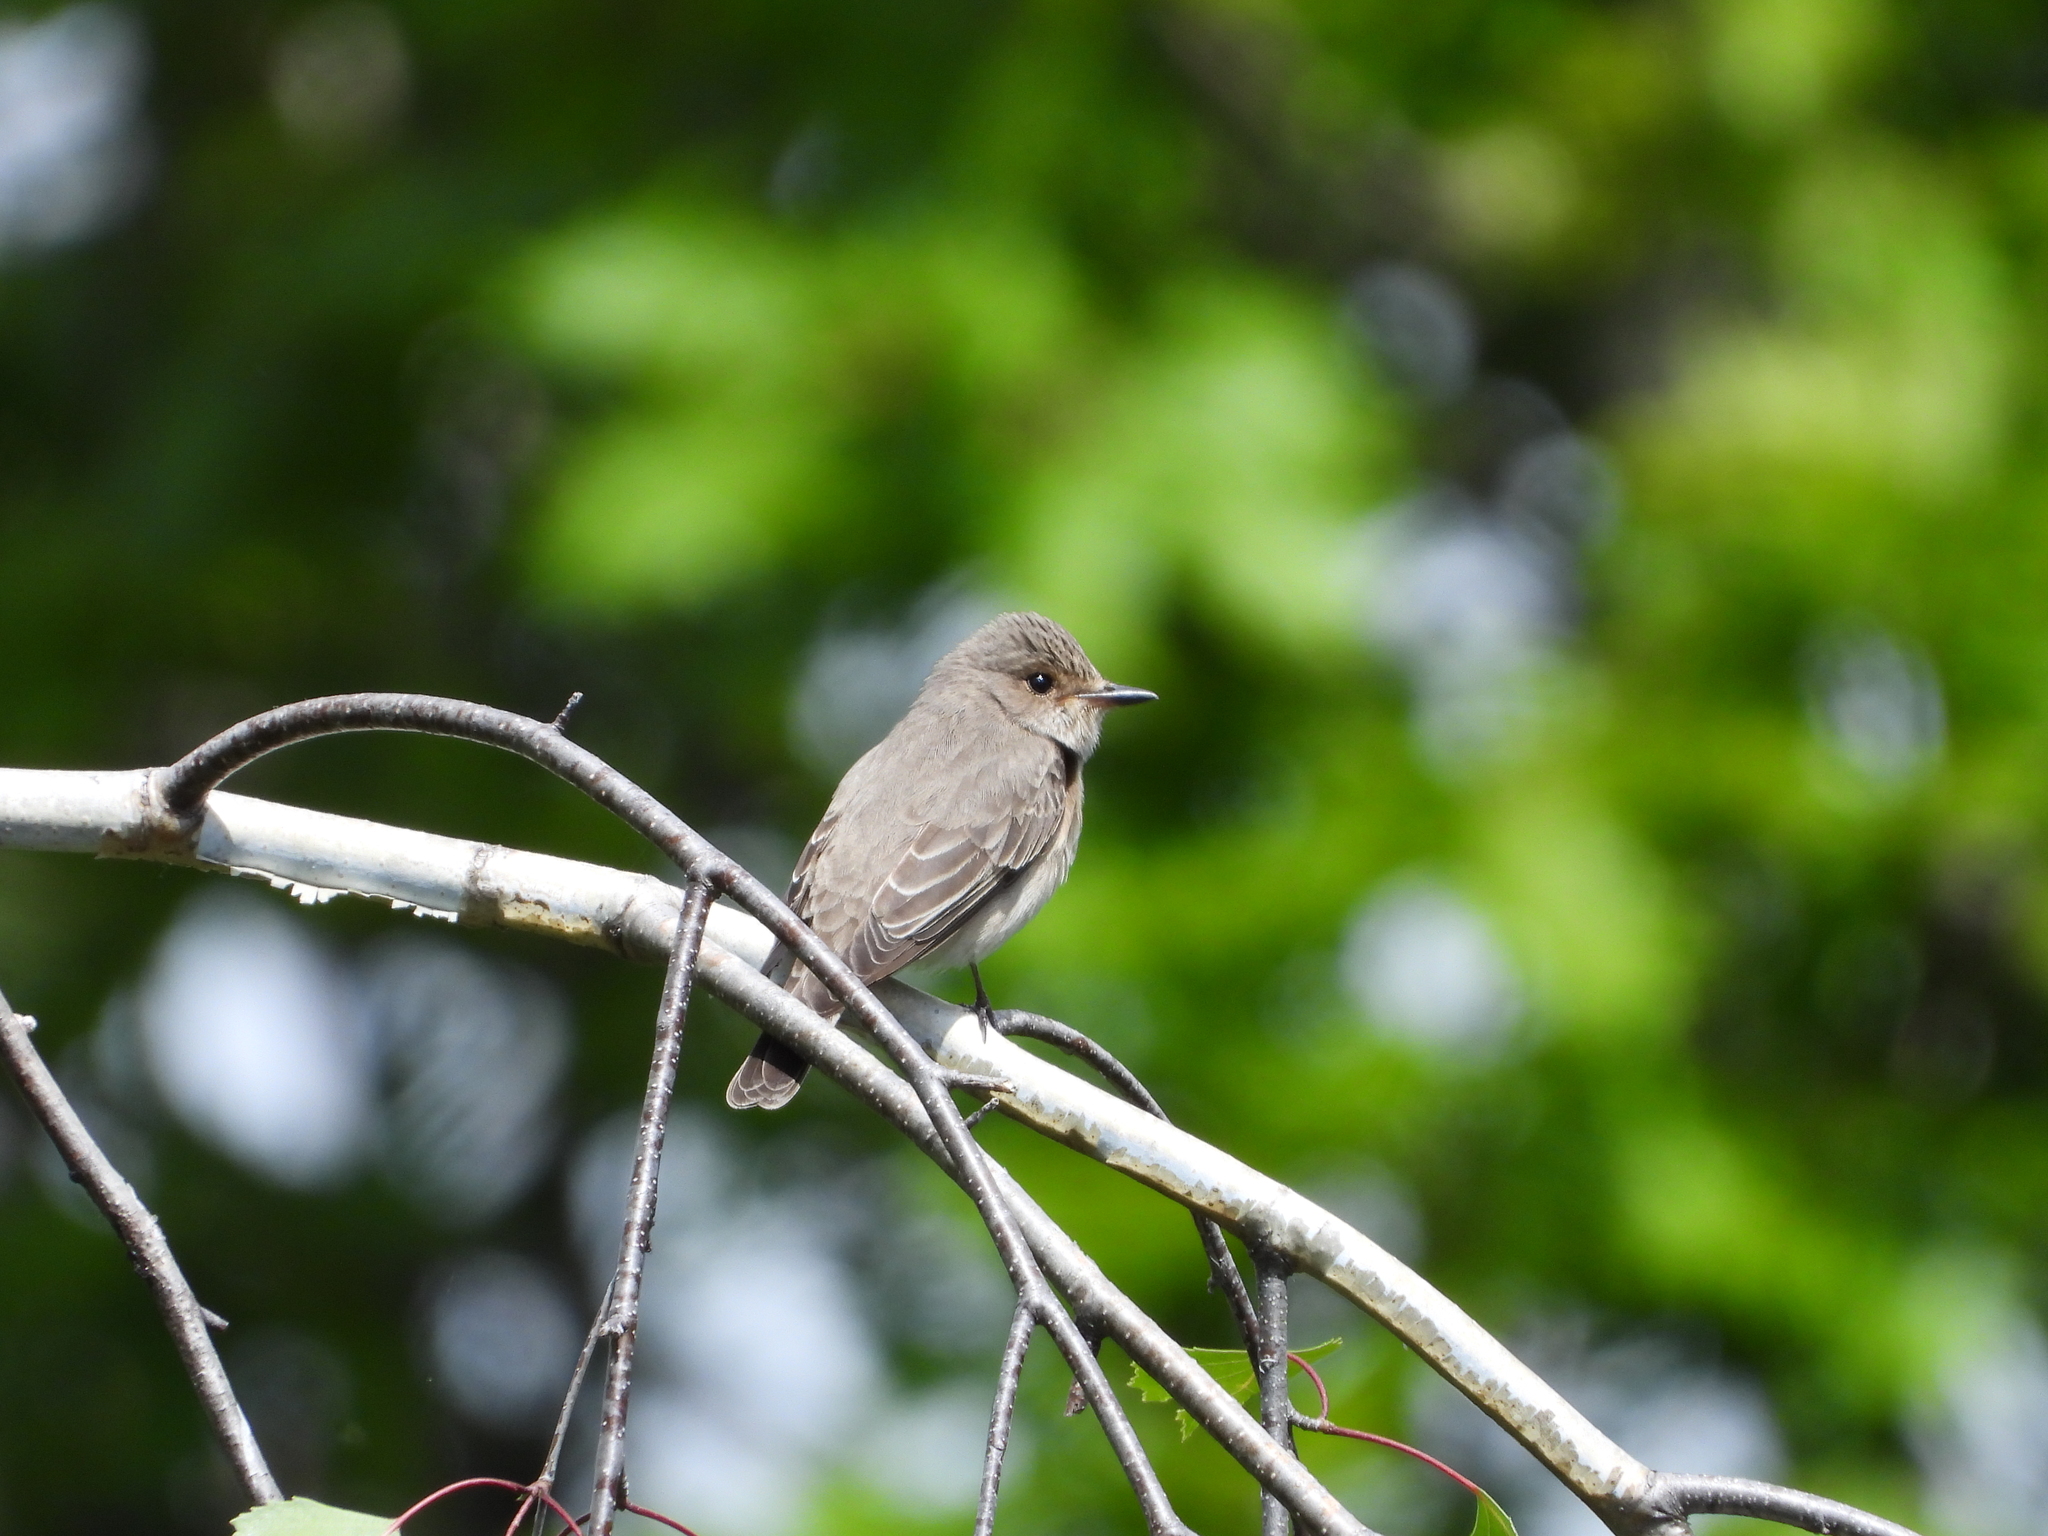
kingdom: Animalia
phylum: Chordata
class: Aves
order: Passeriformes
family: Muscicapidae
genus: Muscicapa
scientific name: Muscicapa striata
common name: Spotted flycatcher
